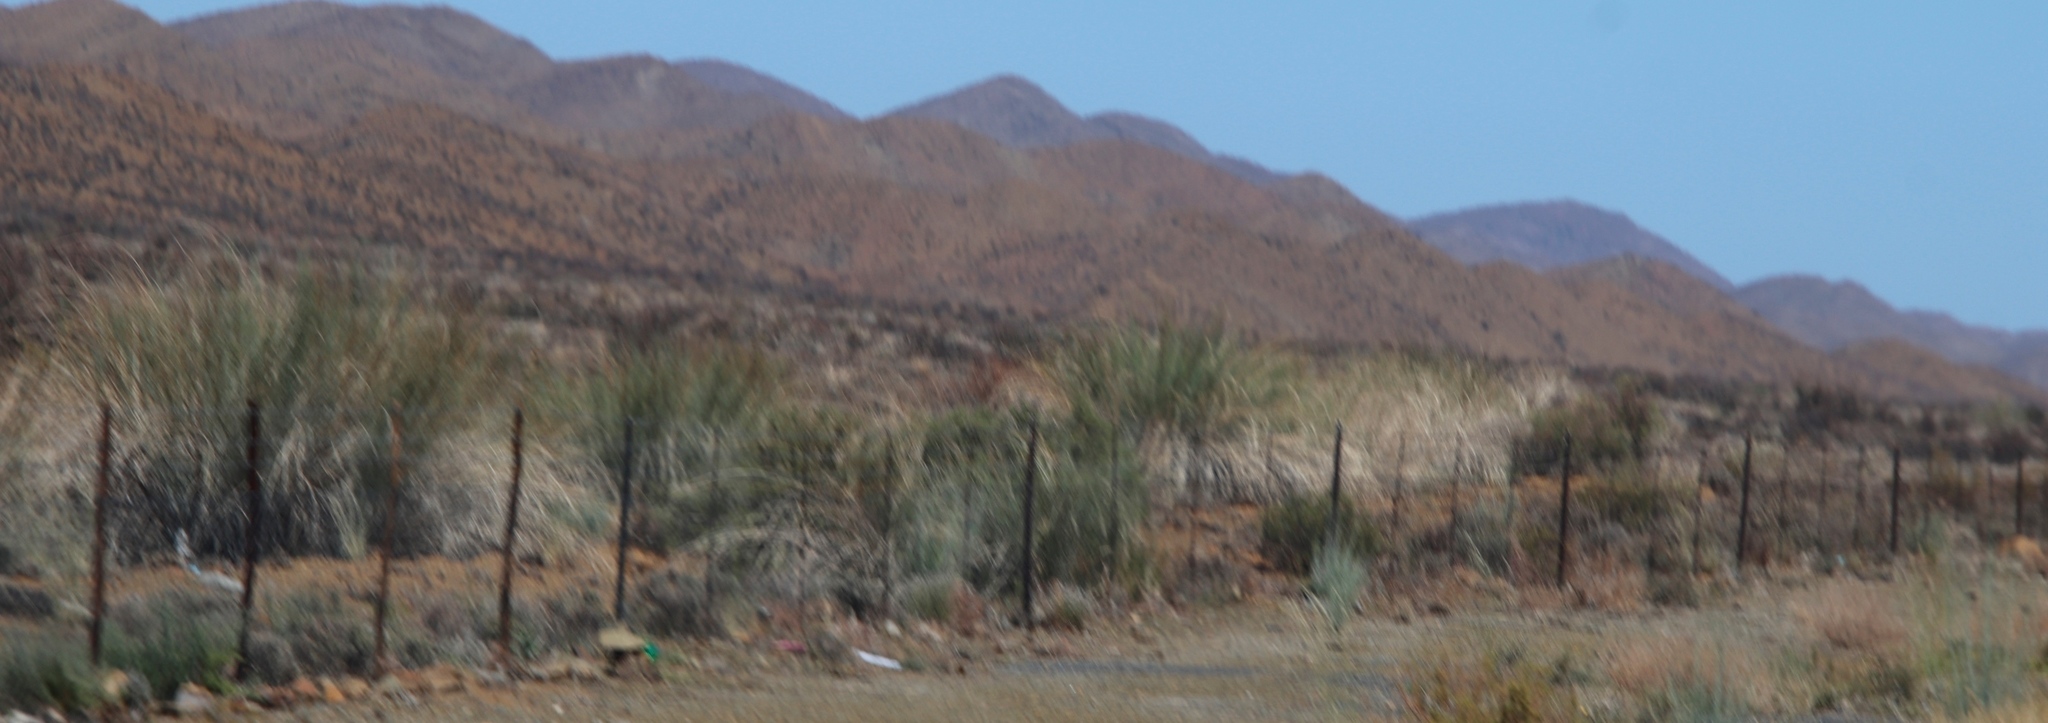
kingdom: Plantae
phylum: Tracheophyta
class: Magnoliopsida
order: Gentianales
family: Apocynaceae
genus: Gomphocarpus
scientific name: Gomphocarpus filiformis
